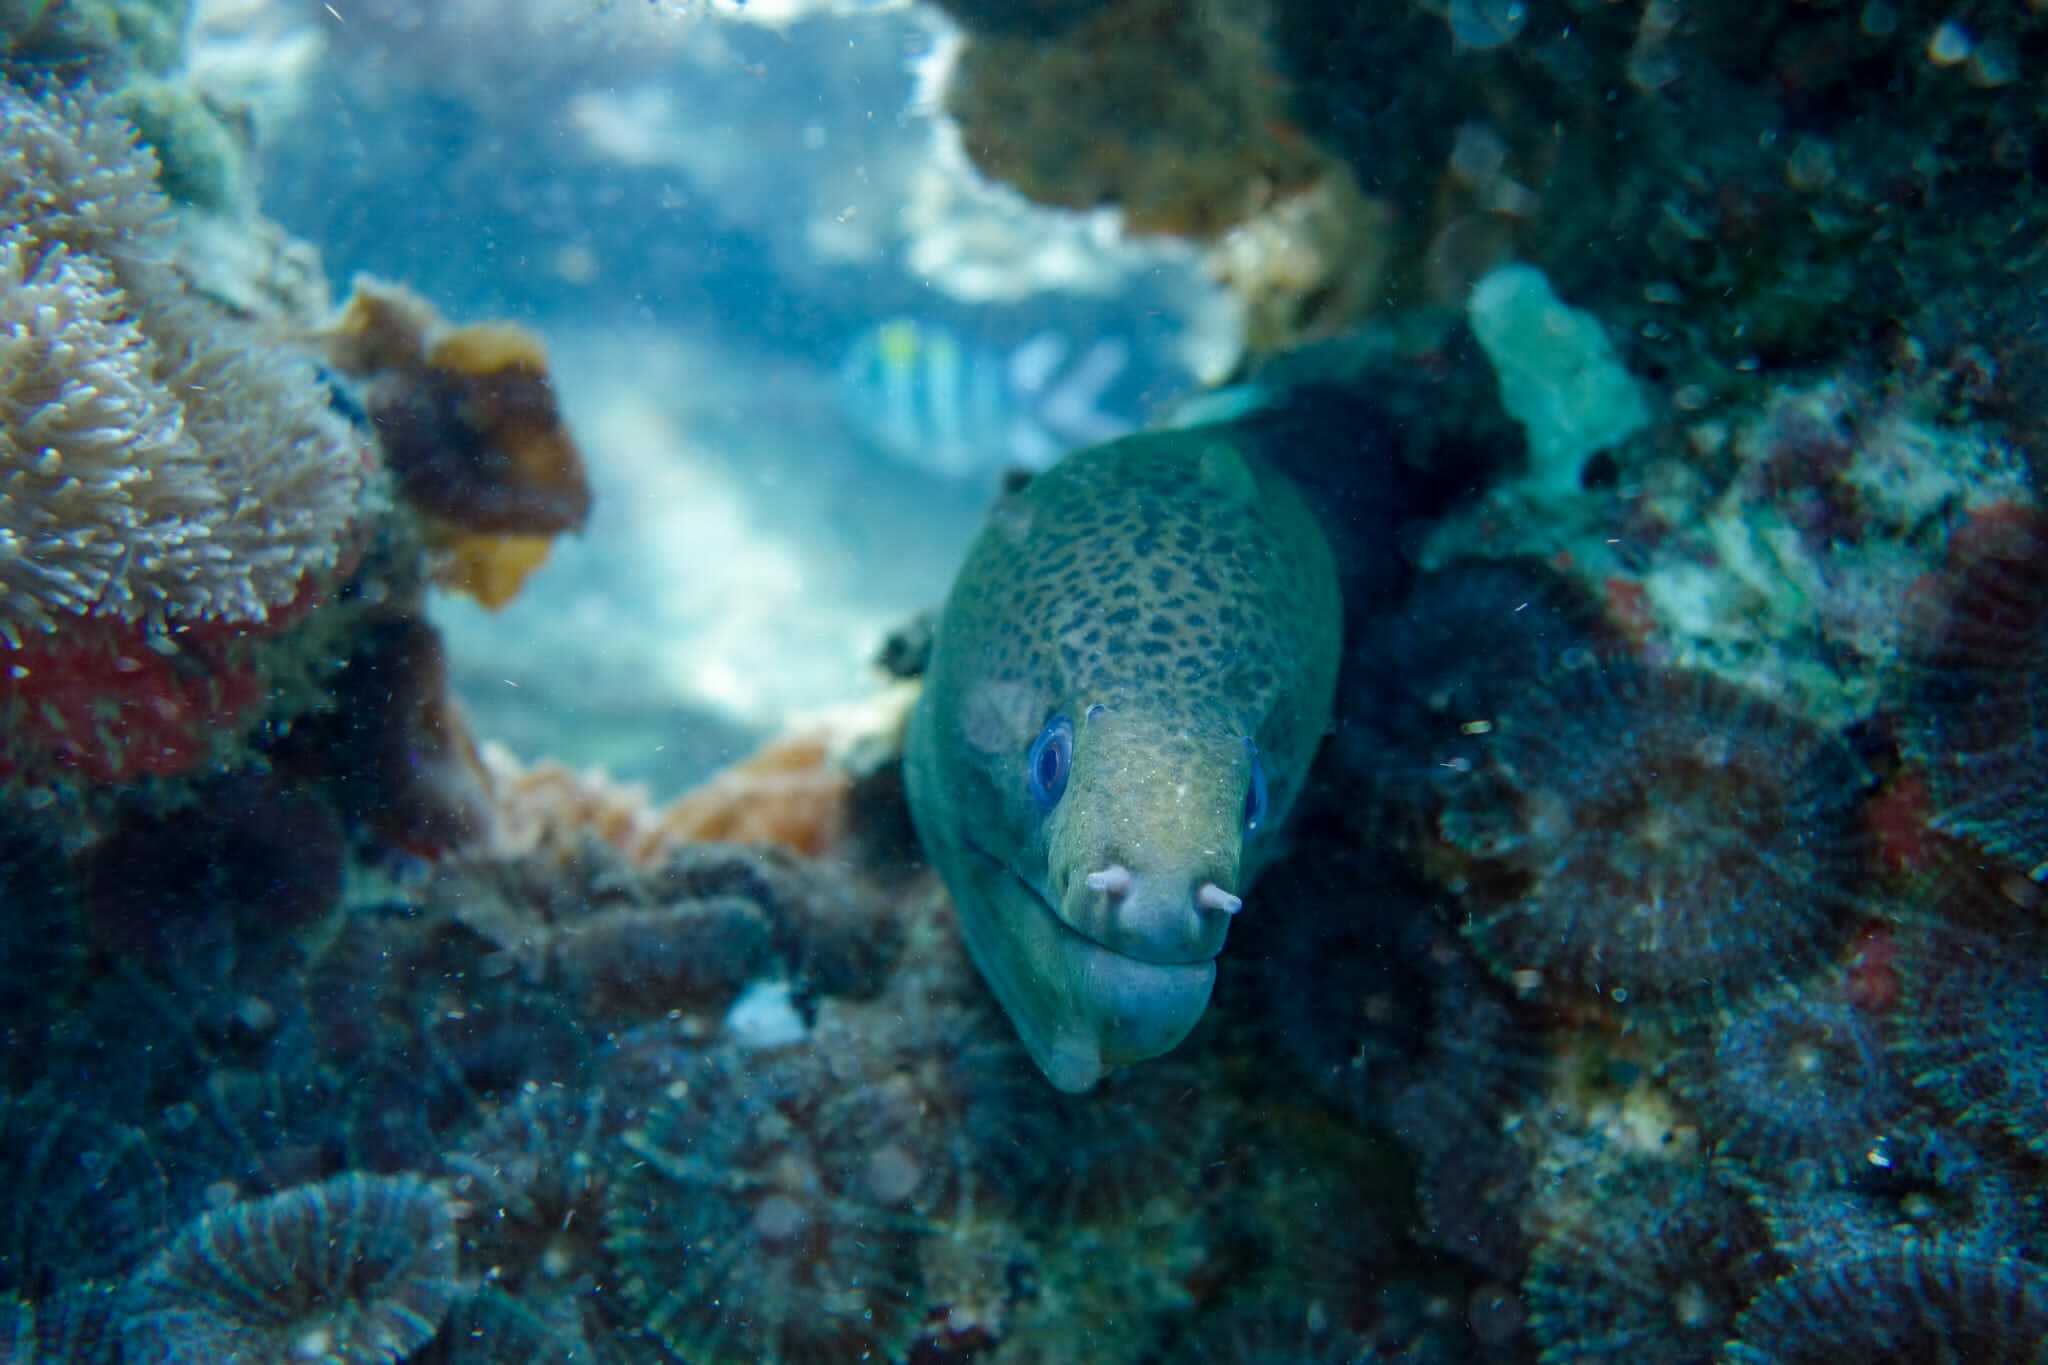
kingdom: Animalia
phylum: Chordata
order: Anguilliformes
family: Muraenidae
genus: Gymnothorax
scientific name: Gymnothorax javanicus
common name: Giant moray
